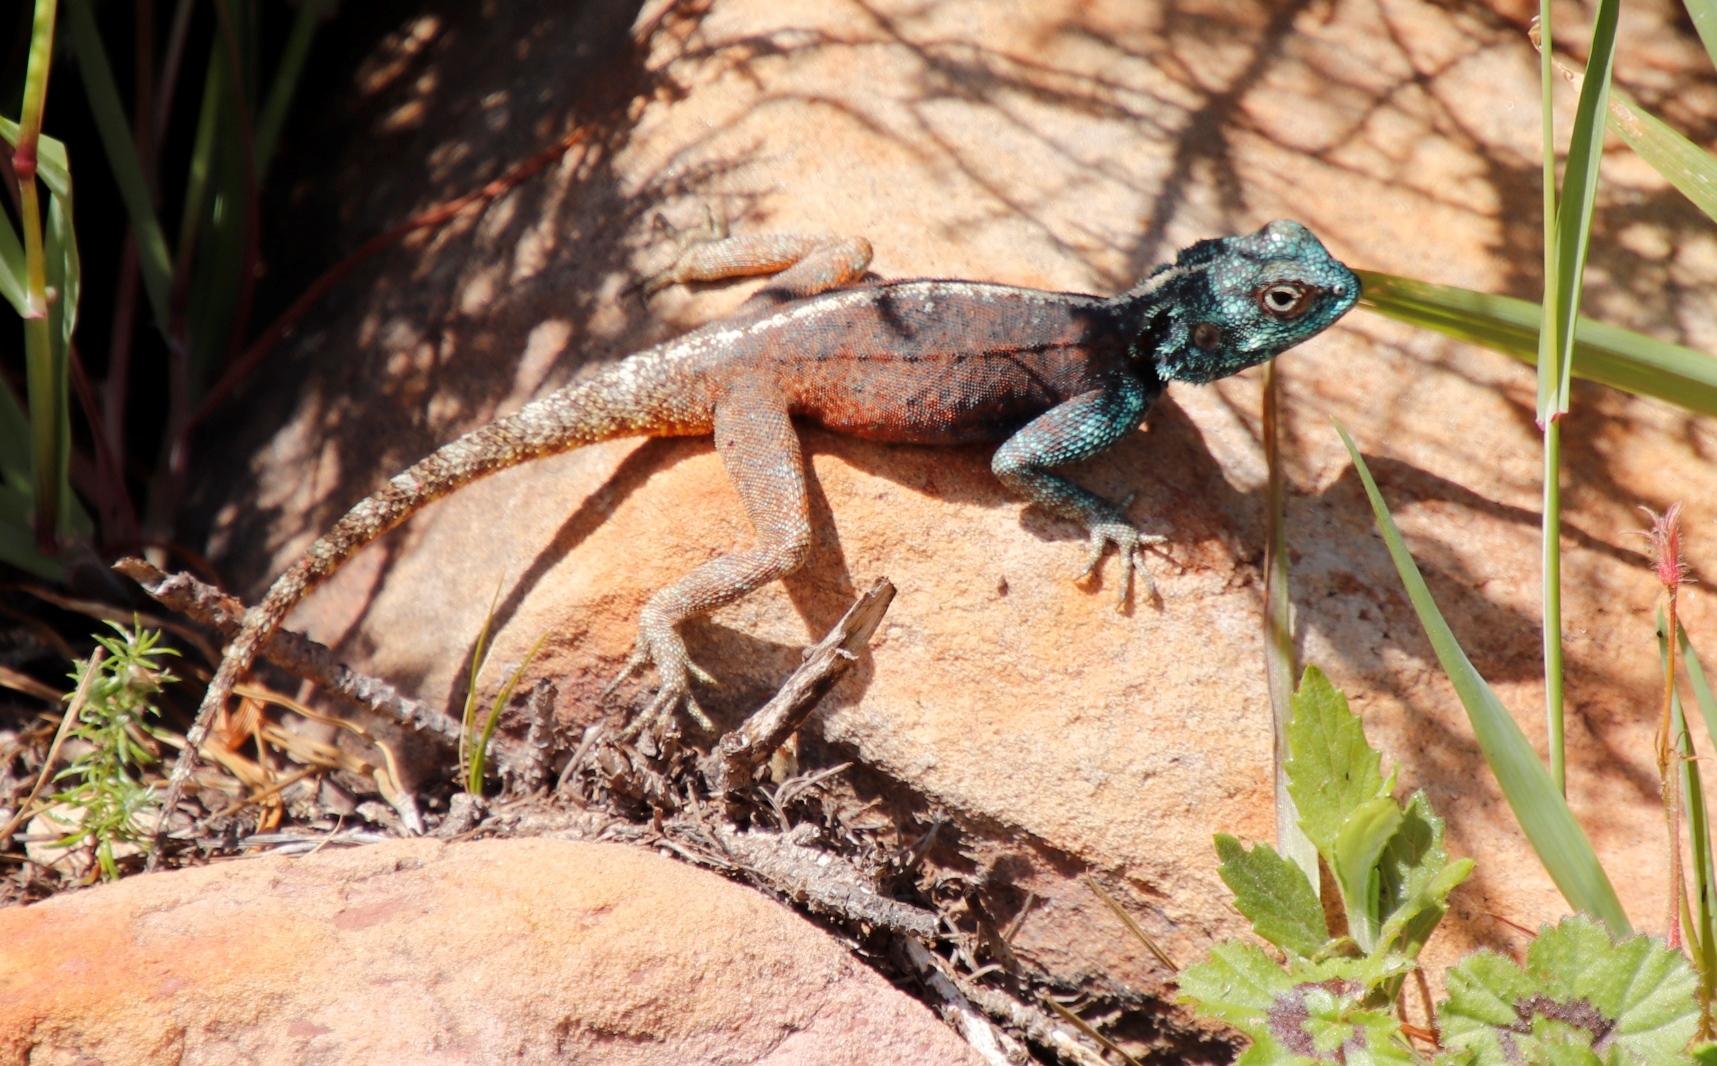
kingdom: Animalia
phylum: Chordata
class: Squamata
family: Agamidae
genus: Agama
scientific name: Agama atra
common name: Southern african rock agama
